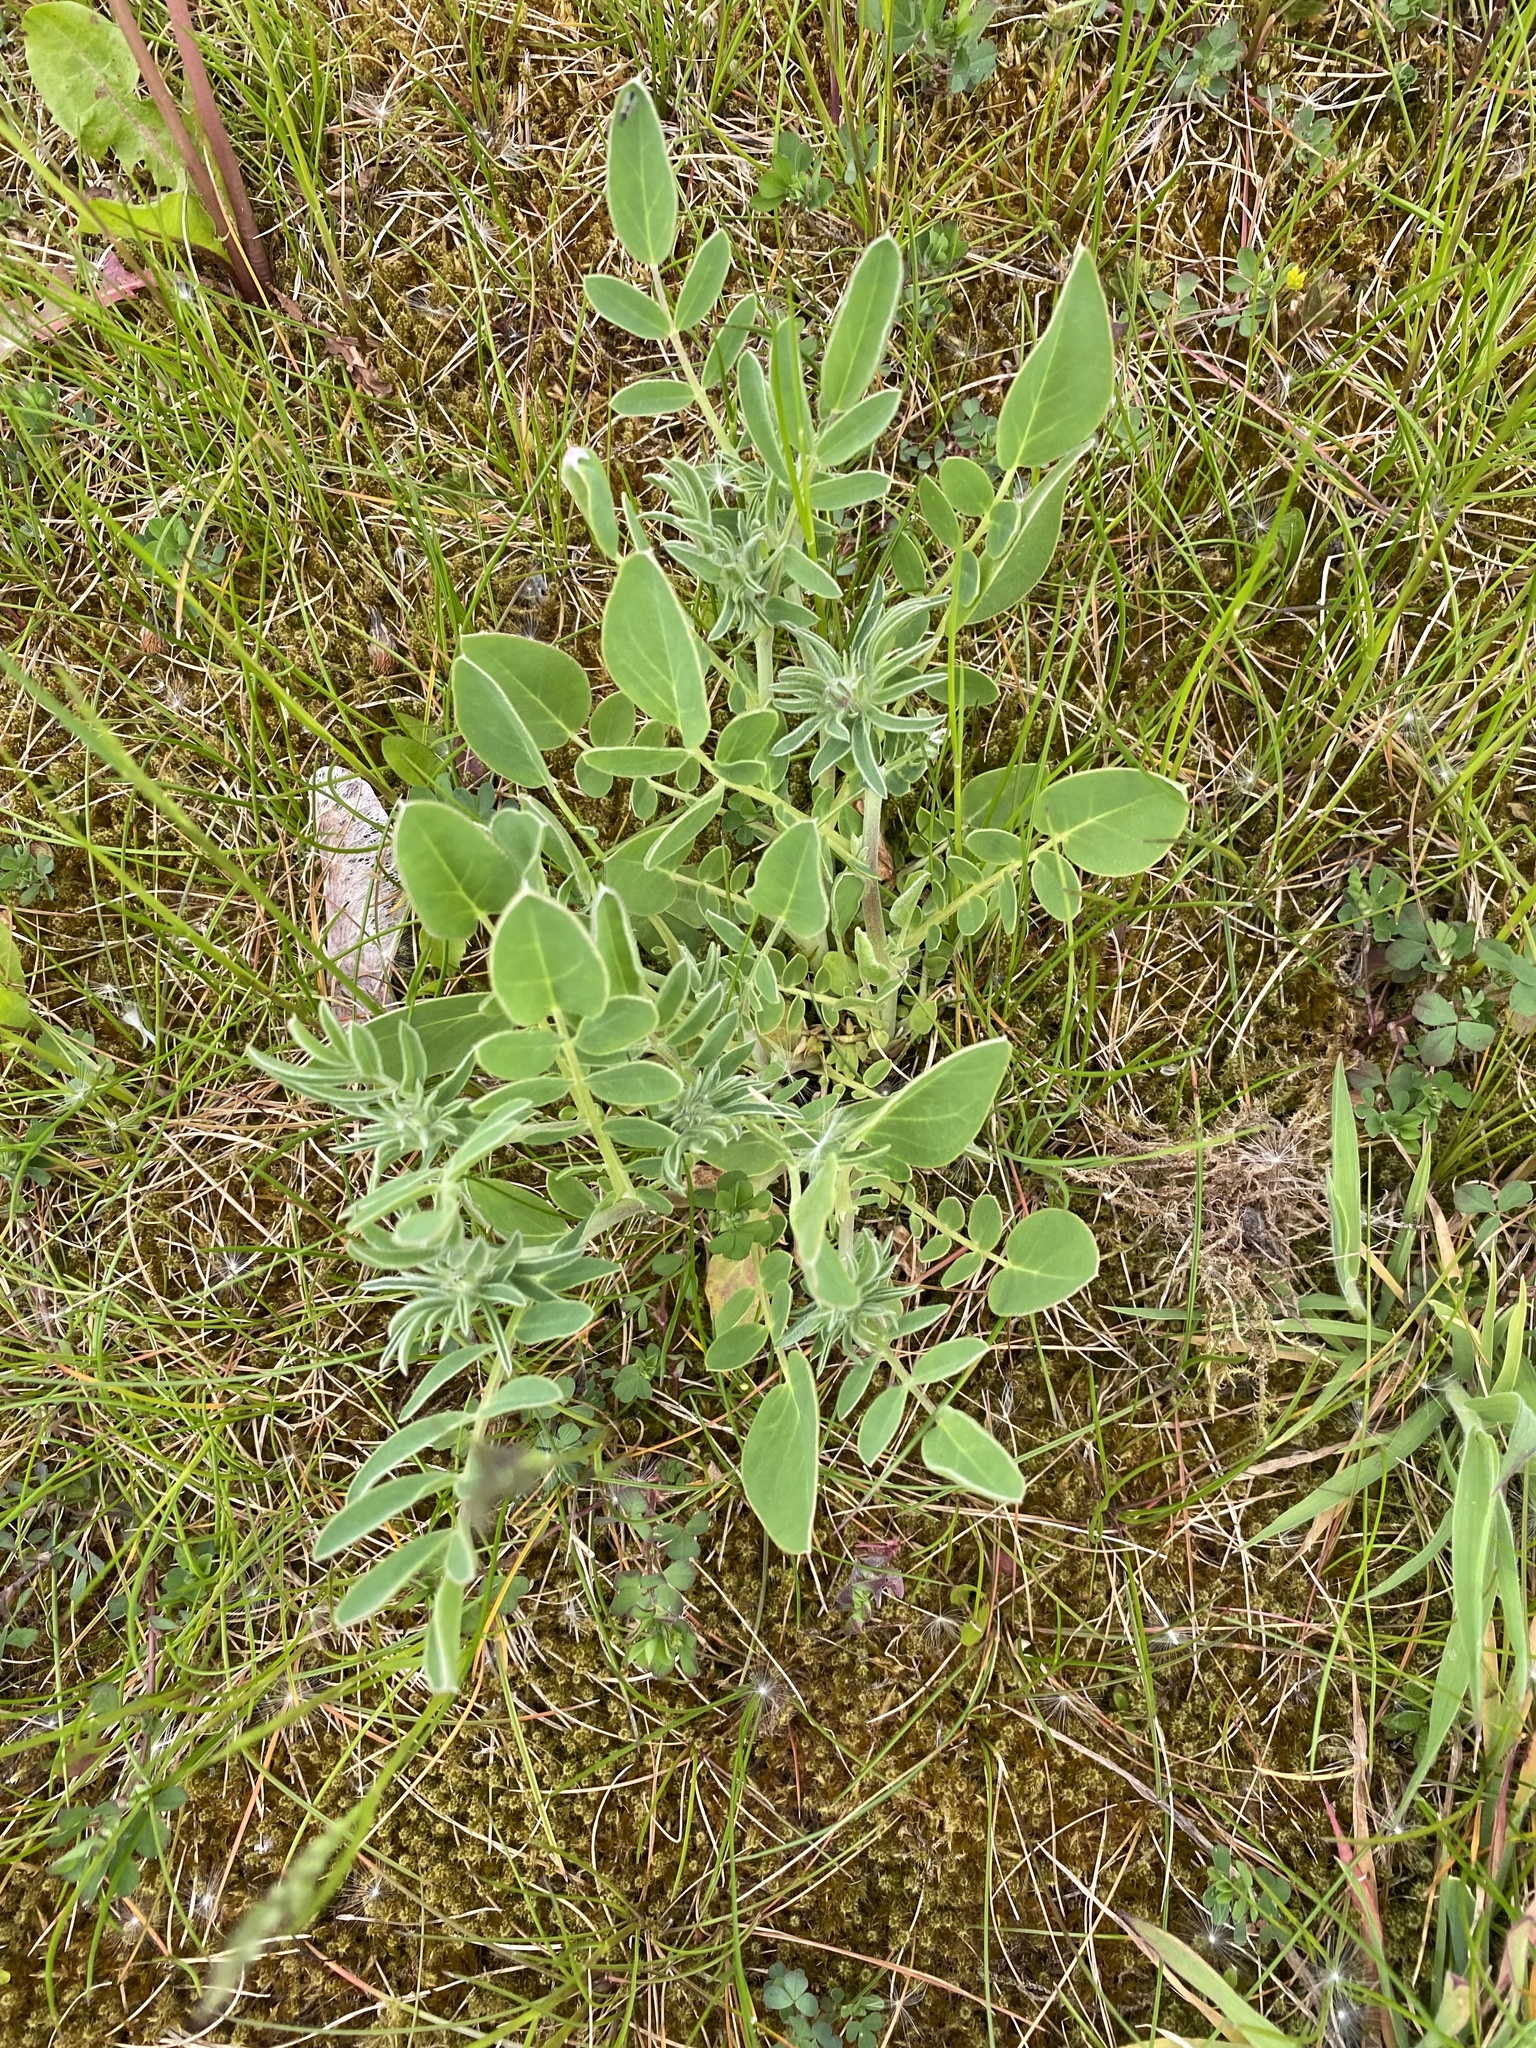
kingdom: Plantae
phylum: Tracheophyta
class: Magnoliopsida
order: Fabales
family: Fabaceae
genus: Anthyllis
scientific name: Anthyllis vulneraria
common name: Kidney vetch
